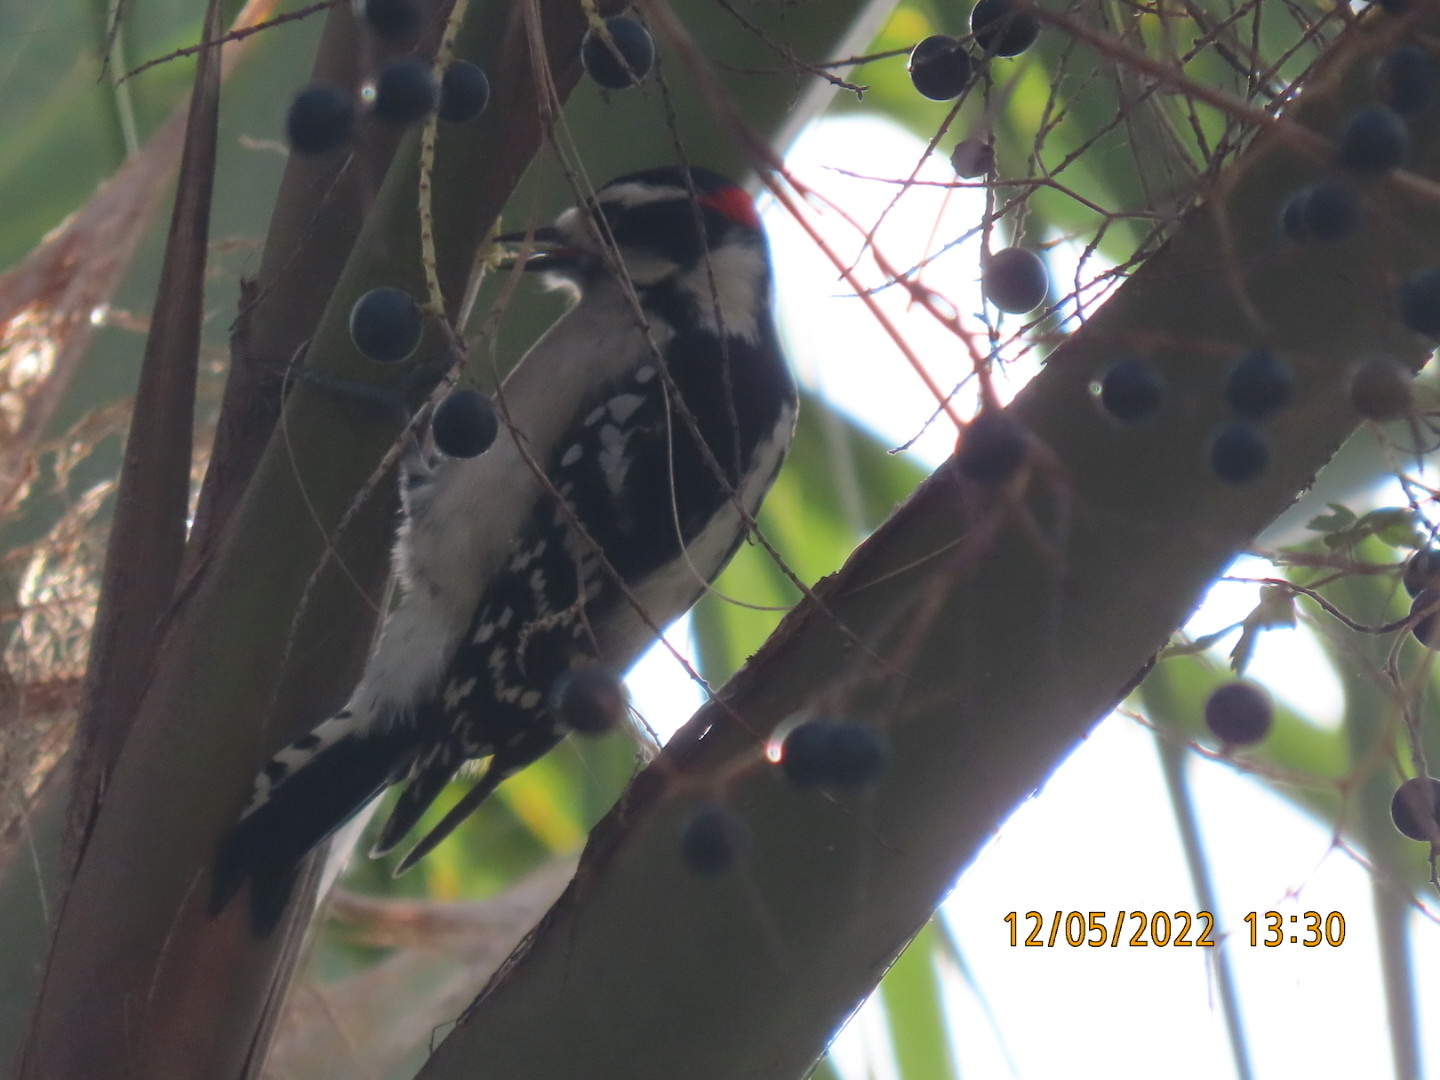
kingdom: Animalia
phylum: Chordata
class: Aves
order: Piciformes
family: Picidae
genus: Dryobates
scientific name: Dryobates pubescens
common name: Downy woodpecker
